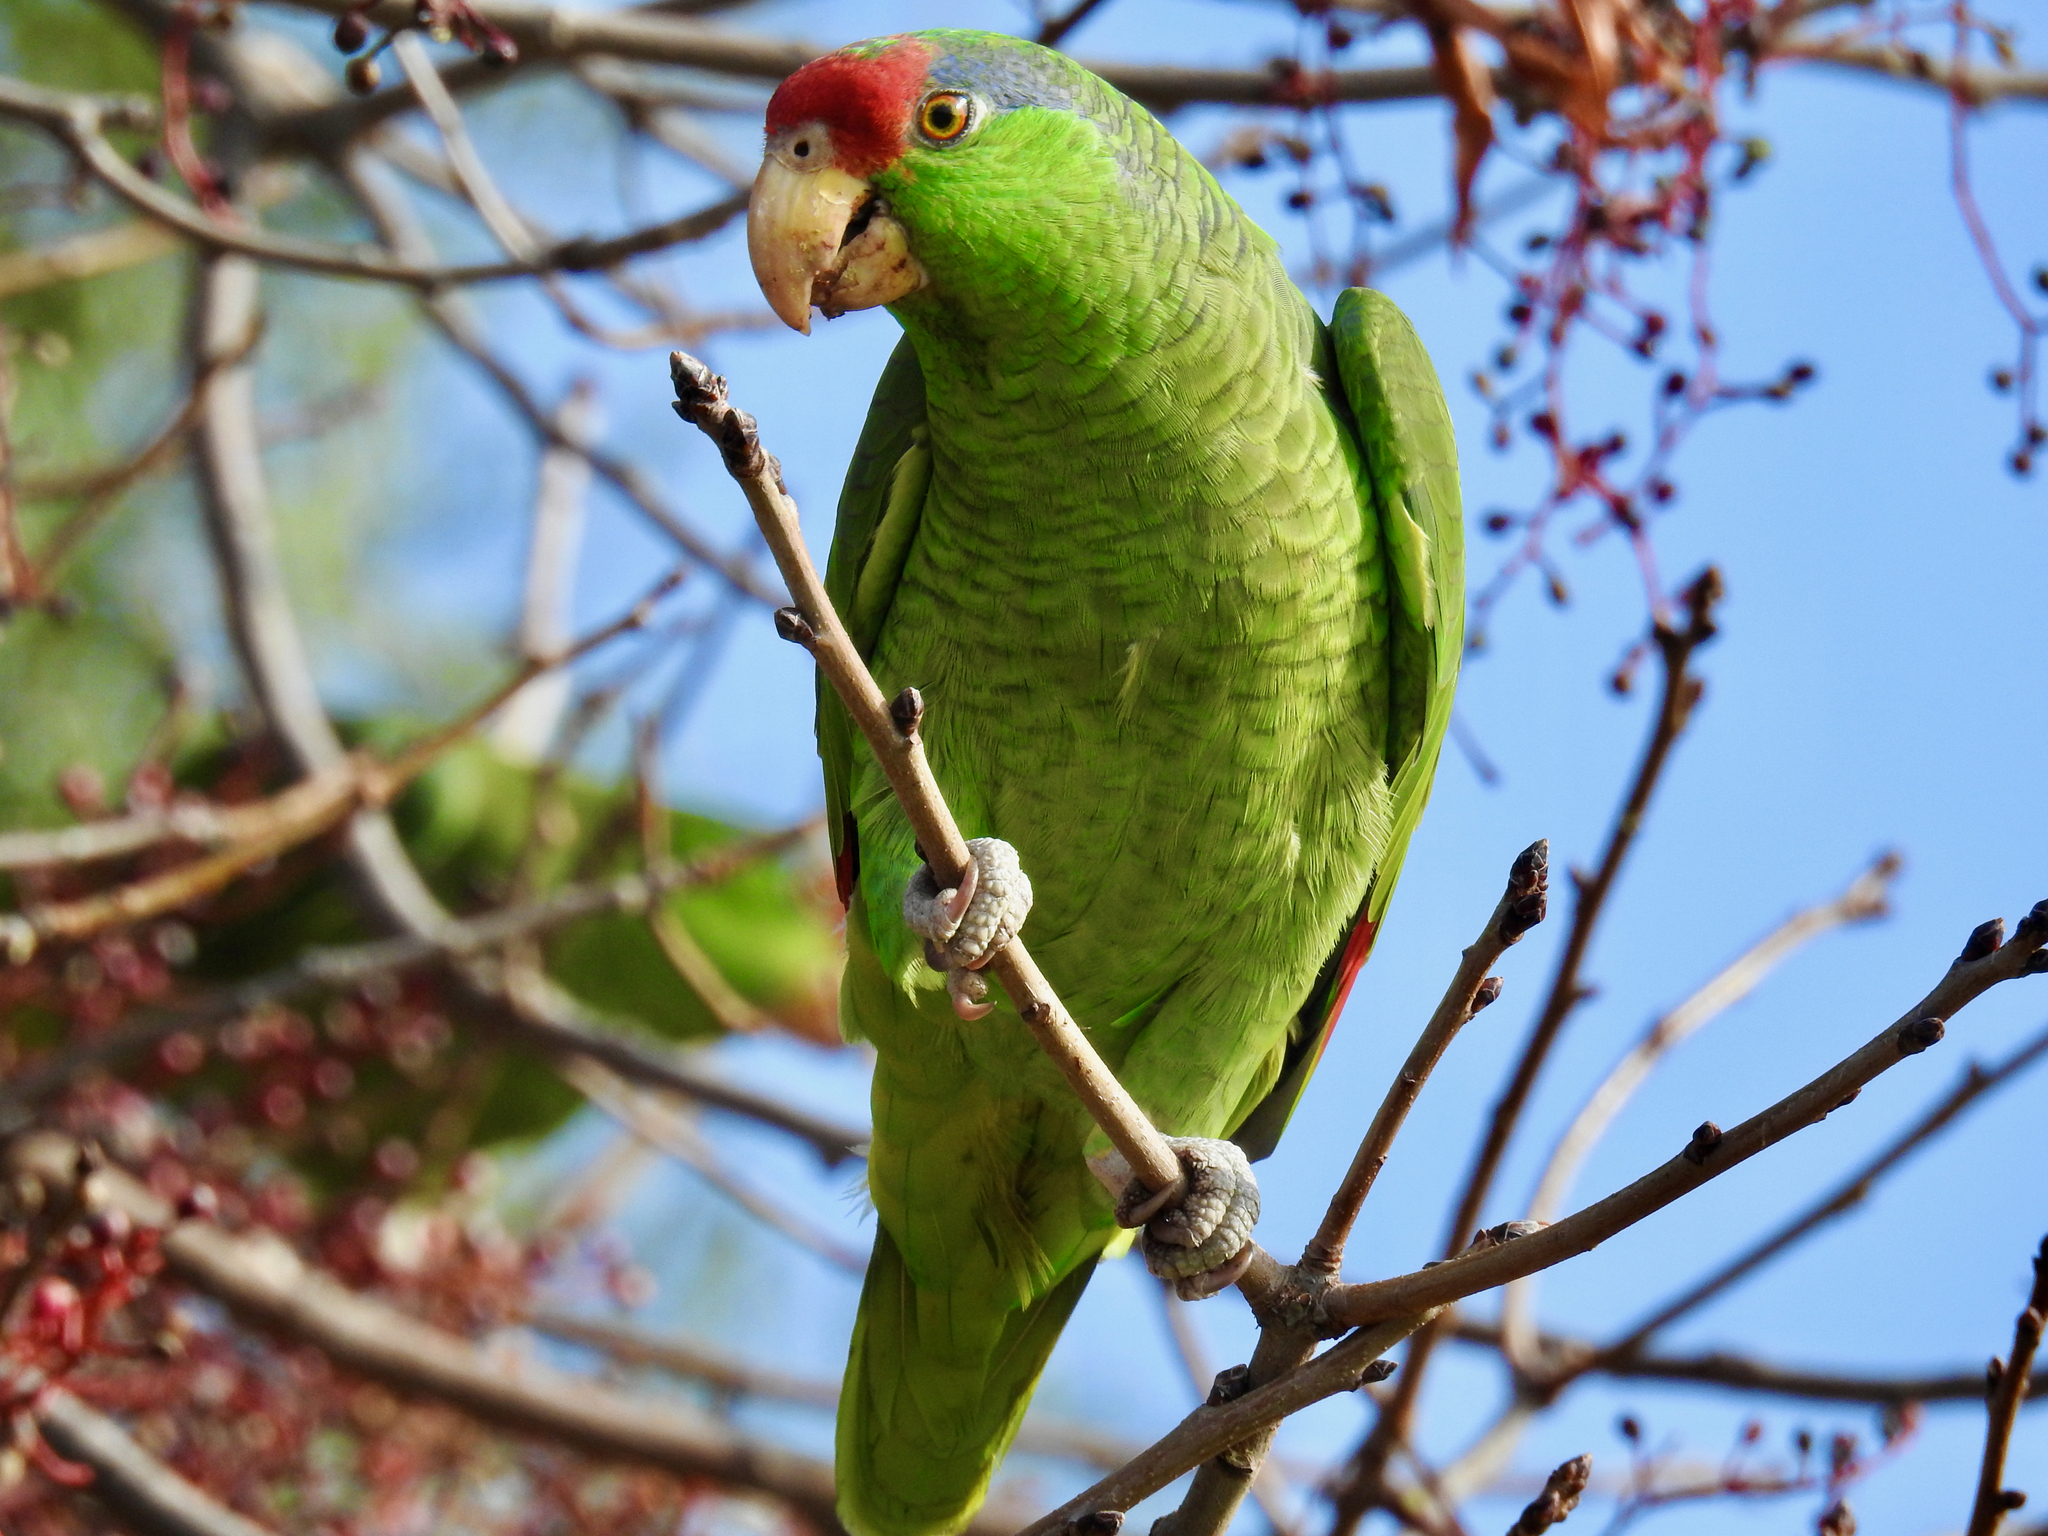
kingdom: Animalia
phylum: Chordata
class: Aves
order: Psittaciformes
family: Psittacidae
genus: Amazona
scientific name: Amazona viridigenalis
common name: Red-crowned amazon
